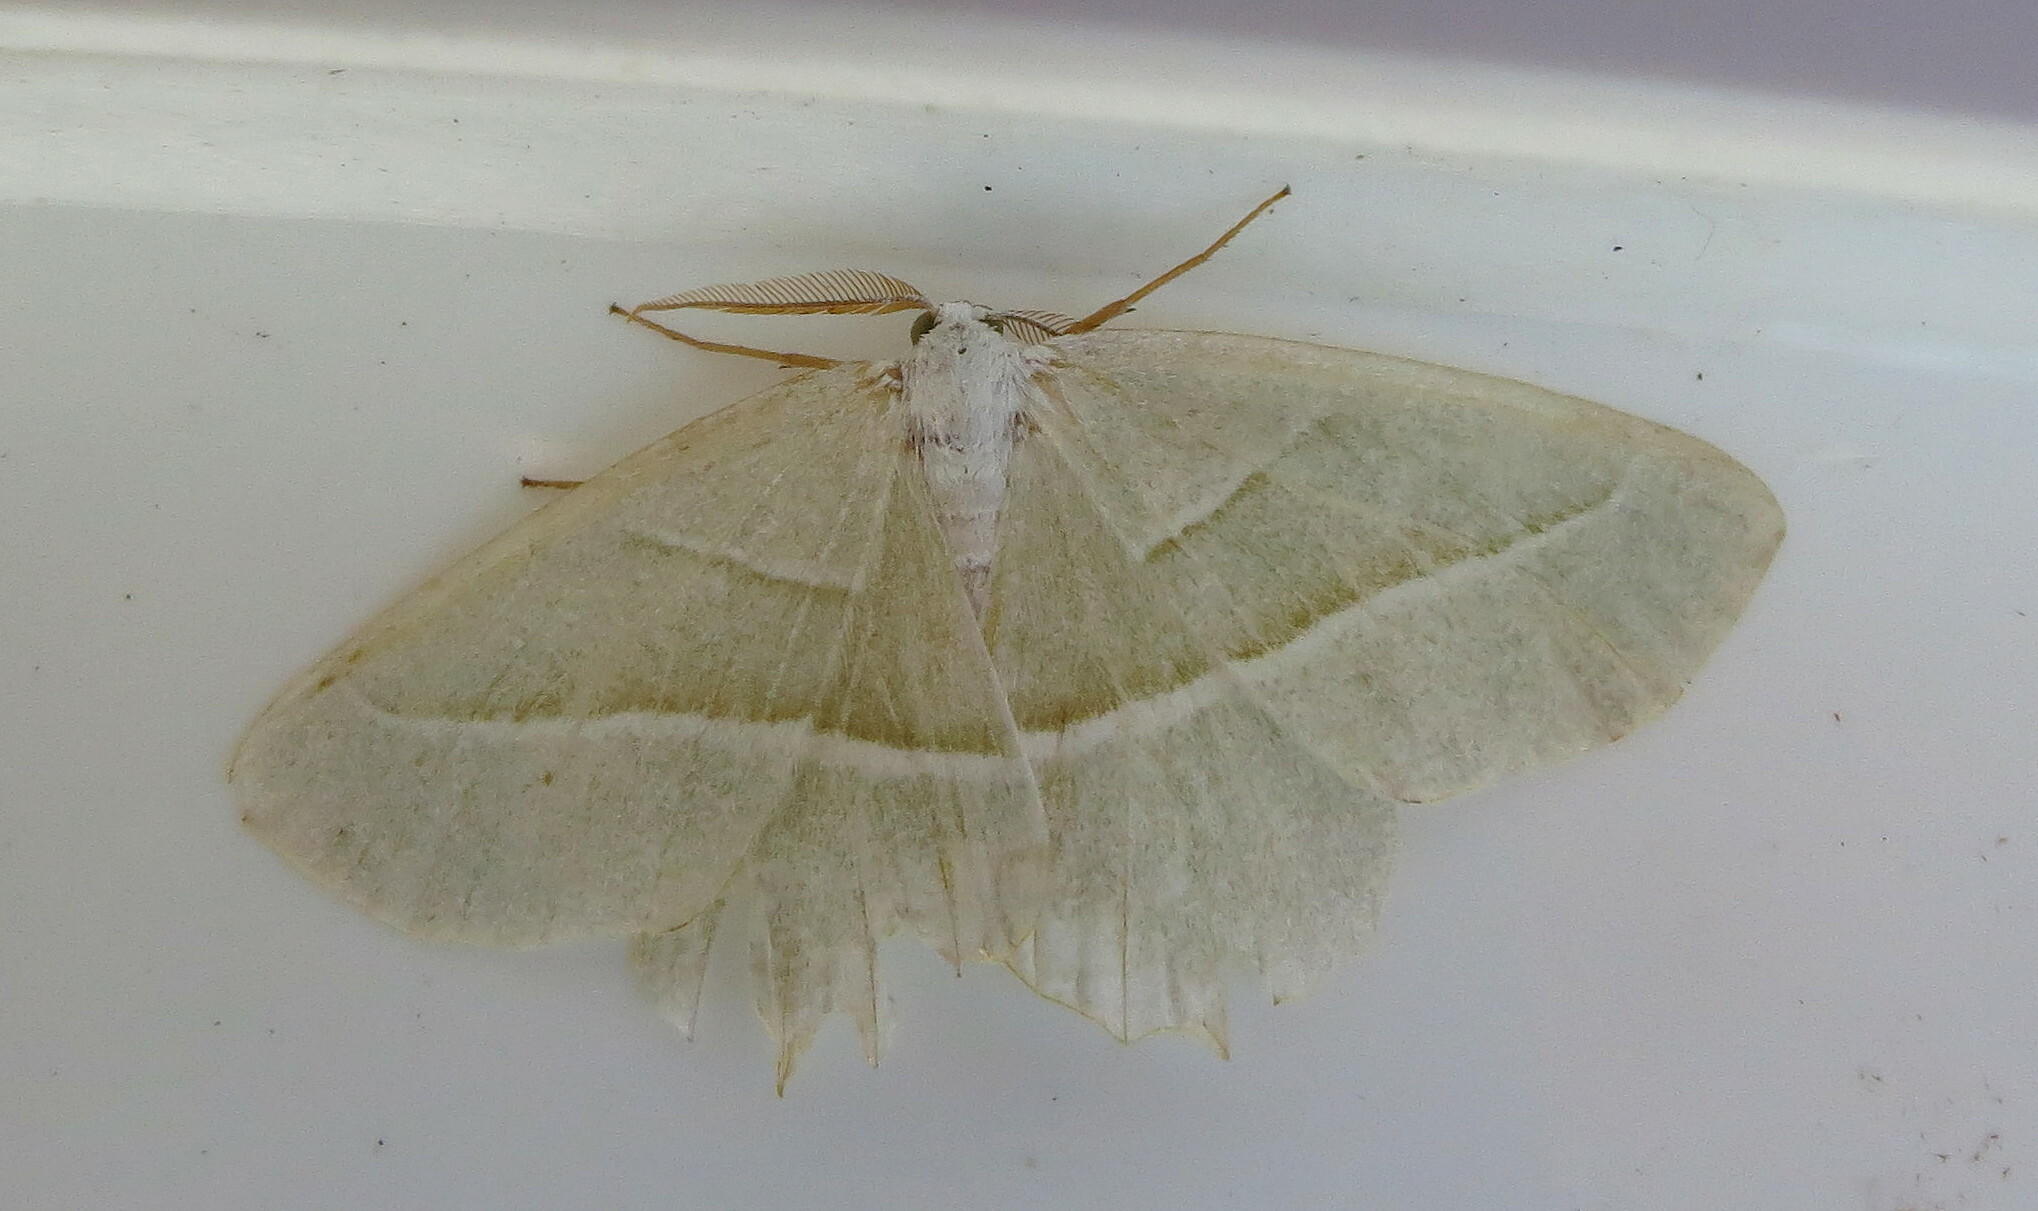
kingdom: Animalia
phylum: Arthropoda
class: Insecta
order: Lepidoptera
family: Geometridae
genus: Campaea
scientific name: Campaea margaritaria
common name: Light emerald
